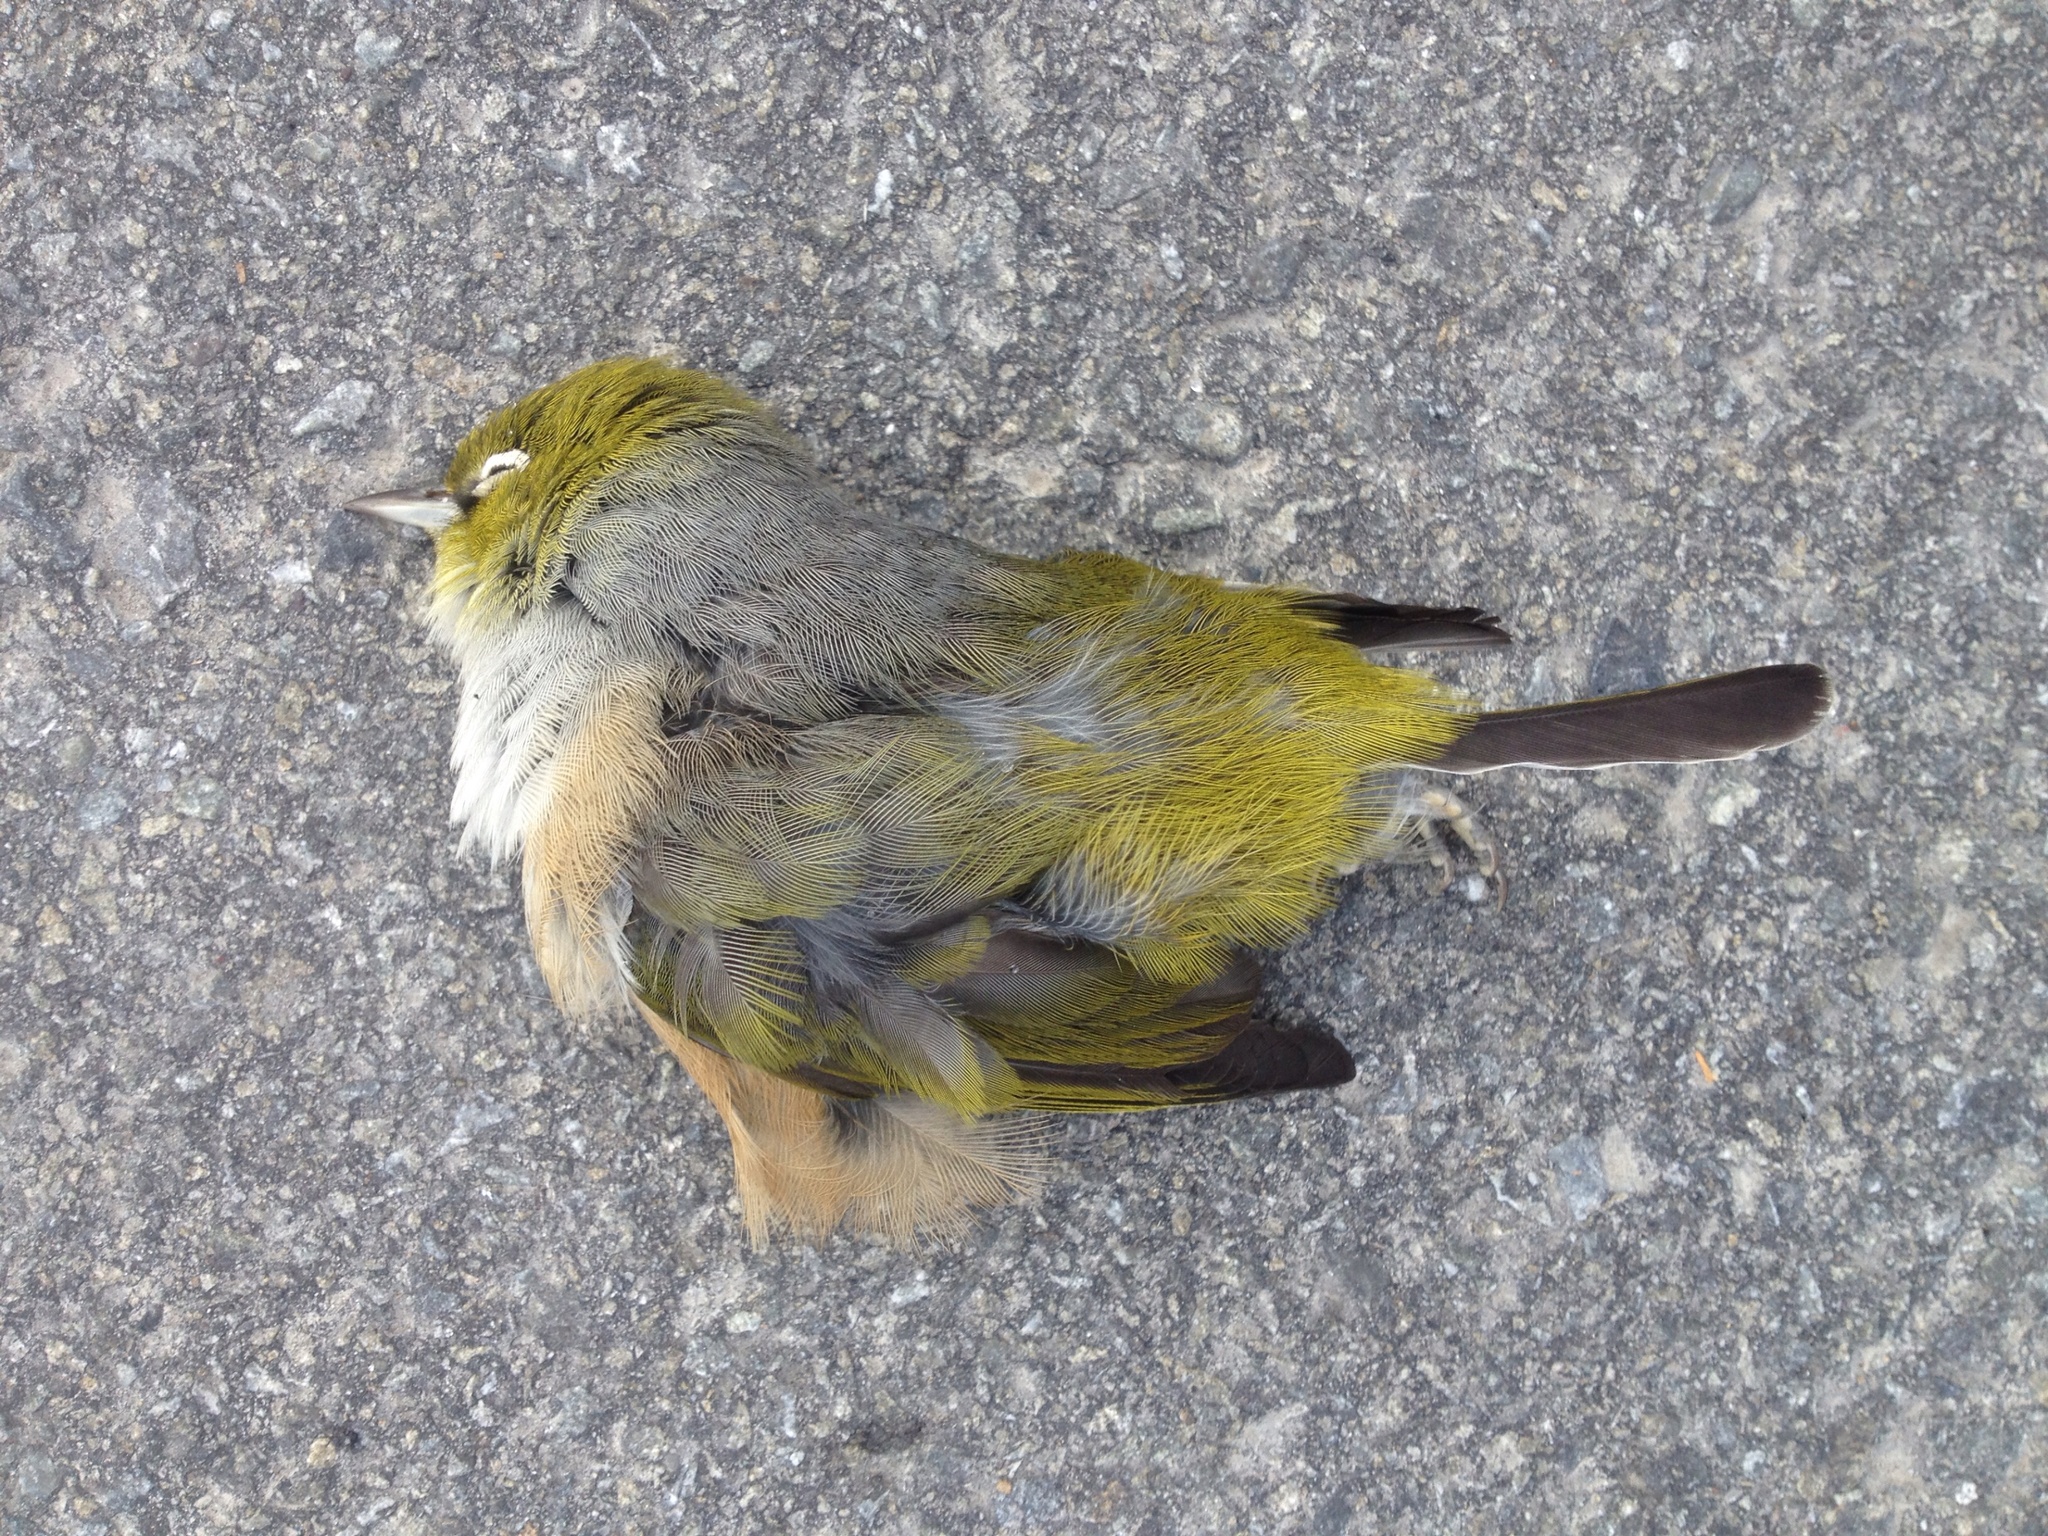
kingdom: Animalia
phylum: Chordata
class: Aves
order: Passeriformes
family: Zosteropidae
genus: Zosterops
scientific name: Zosterops lateralis
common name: Silvereye
